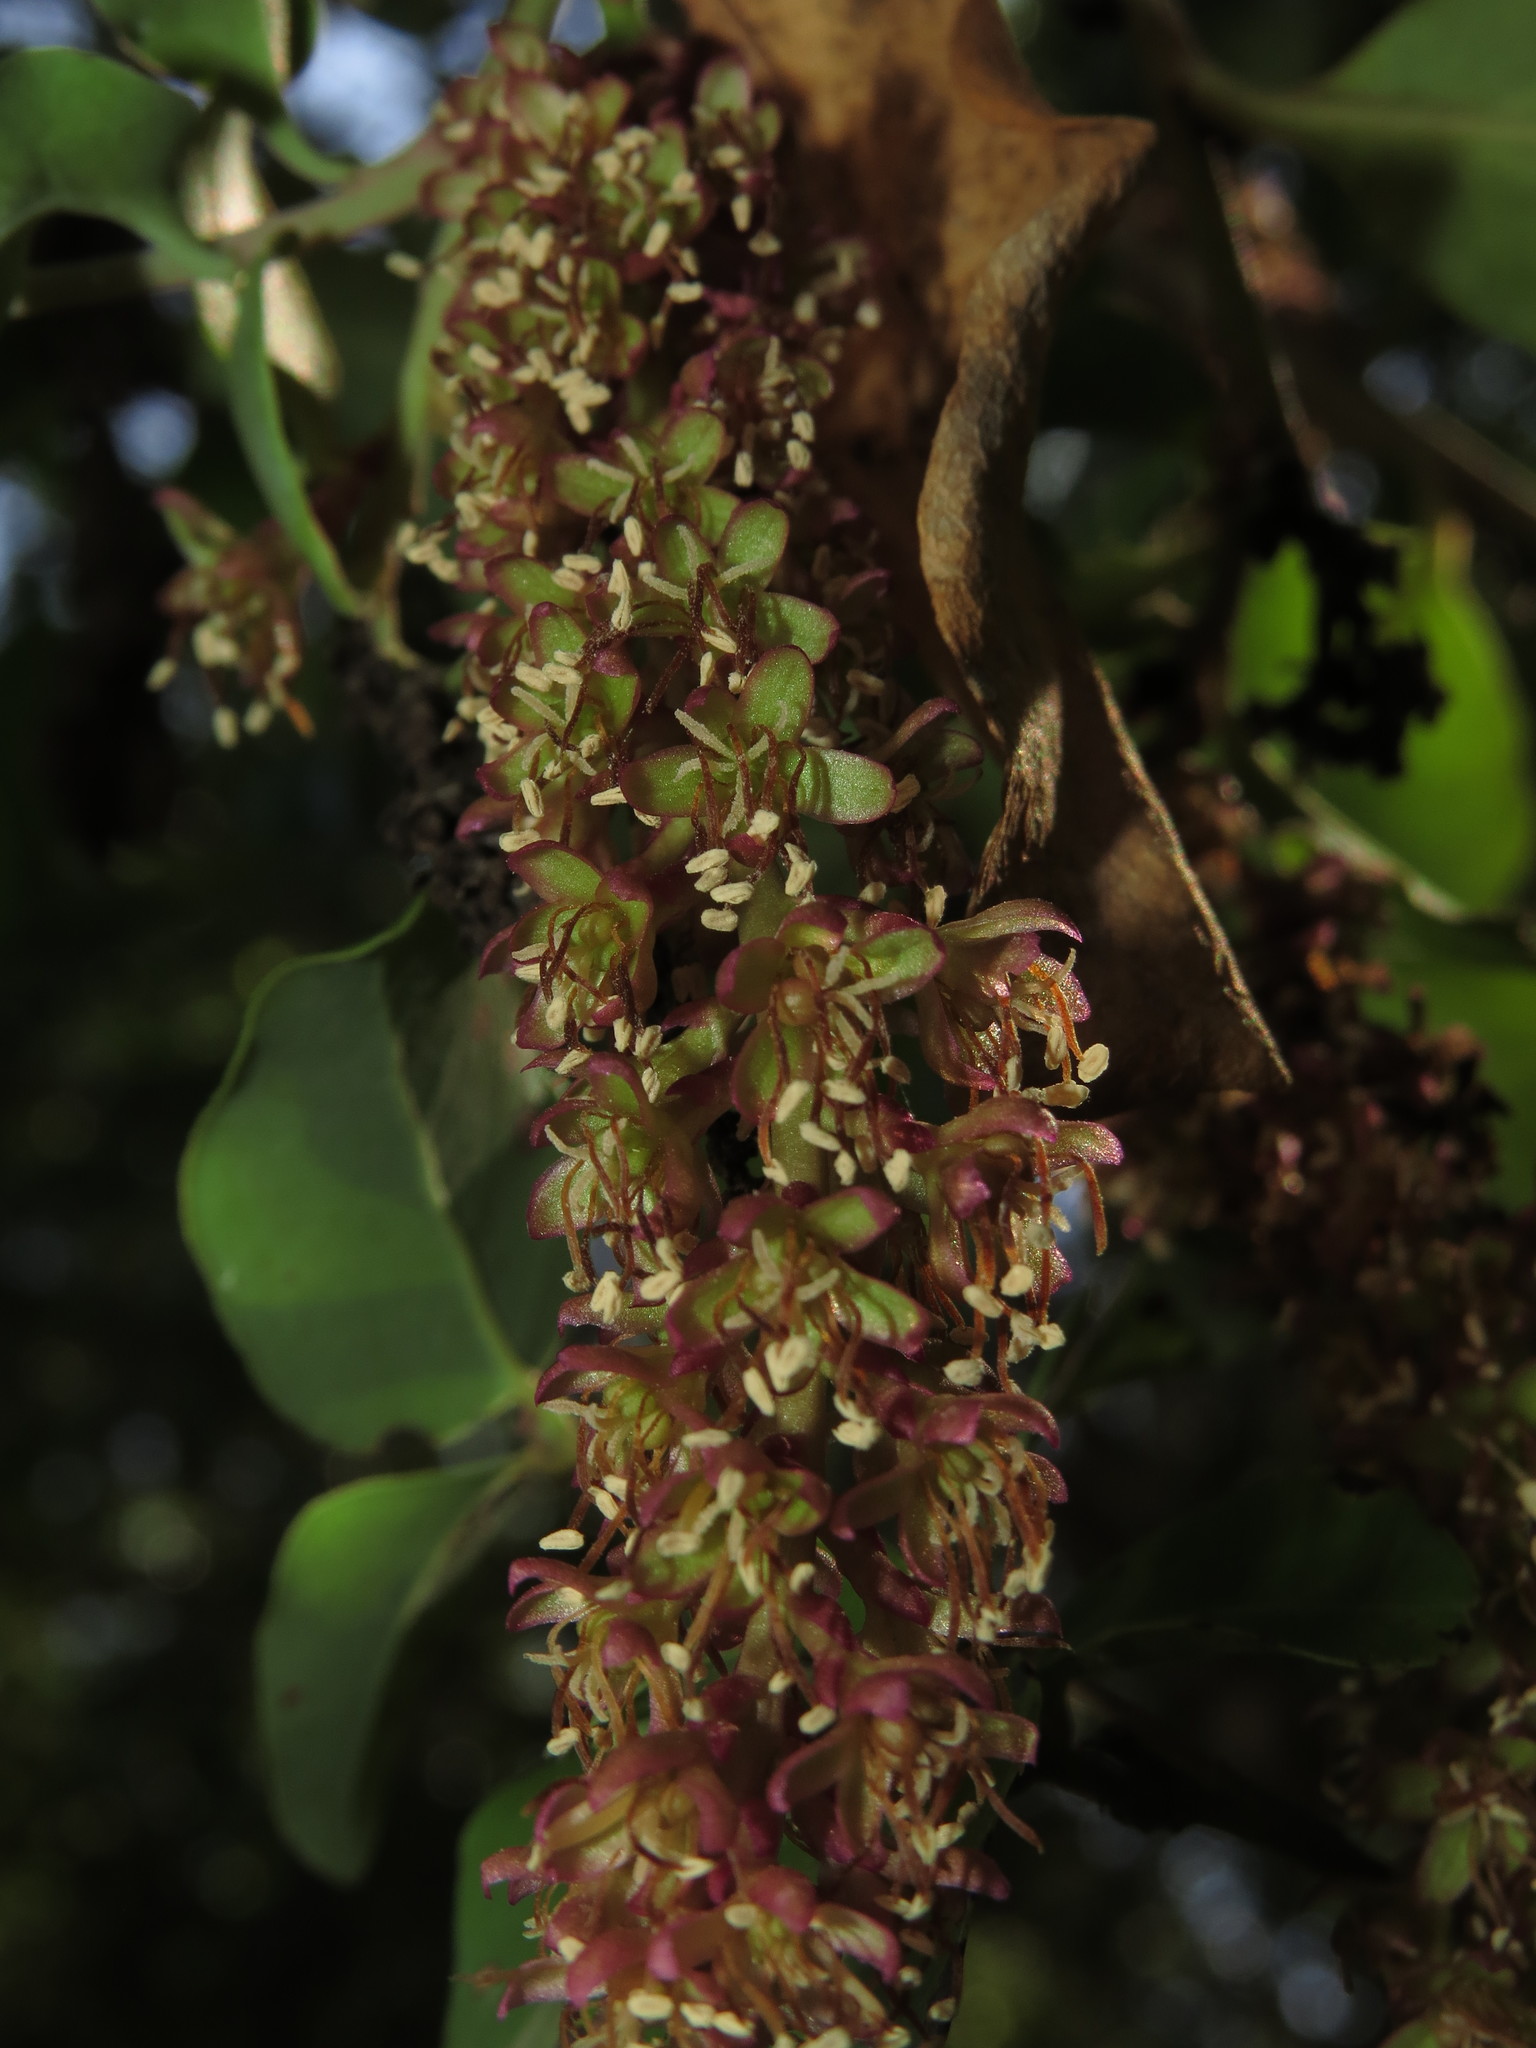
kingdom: Plantae
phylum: Tracheophyta
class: Magnoliopsida
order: Caryophyllales
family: Phytolaccaceae
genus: Ercilla
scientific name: Ercilla spicata
